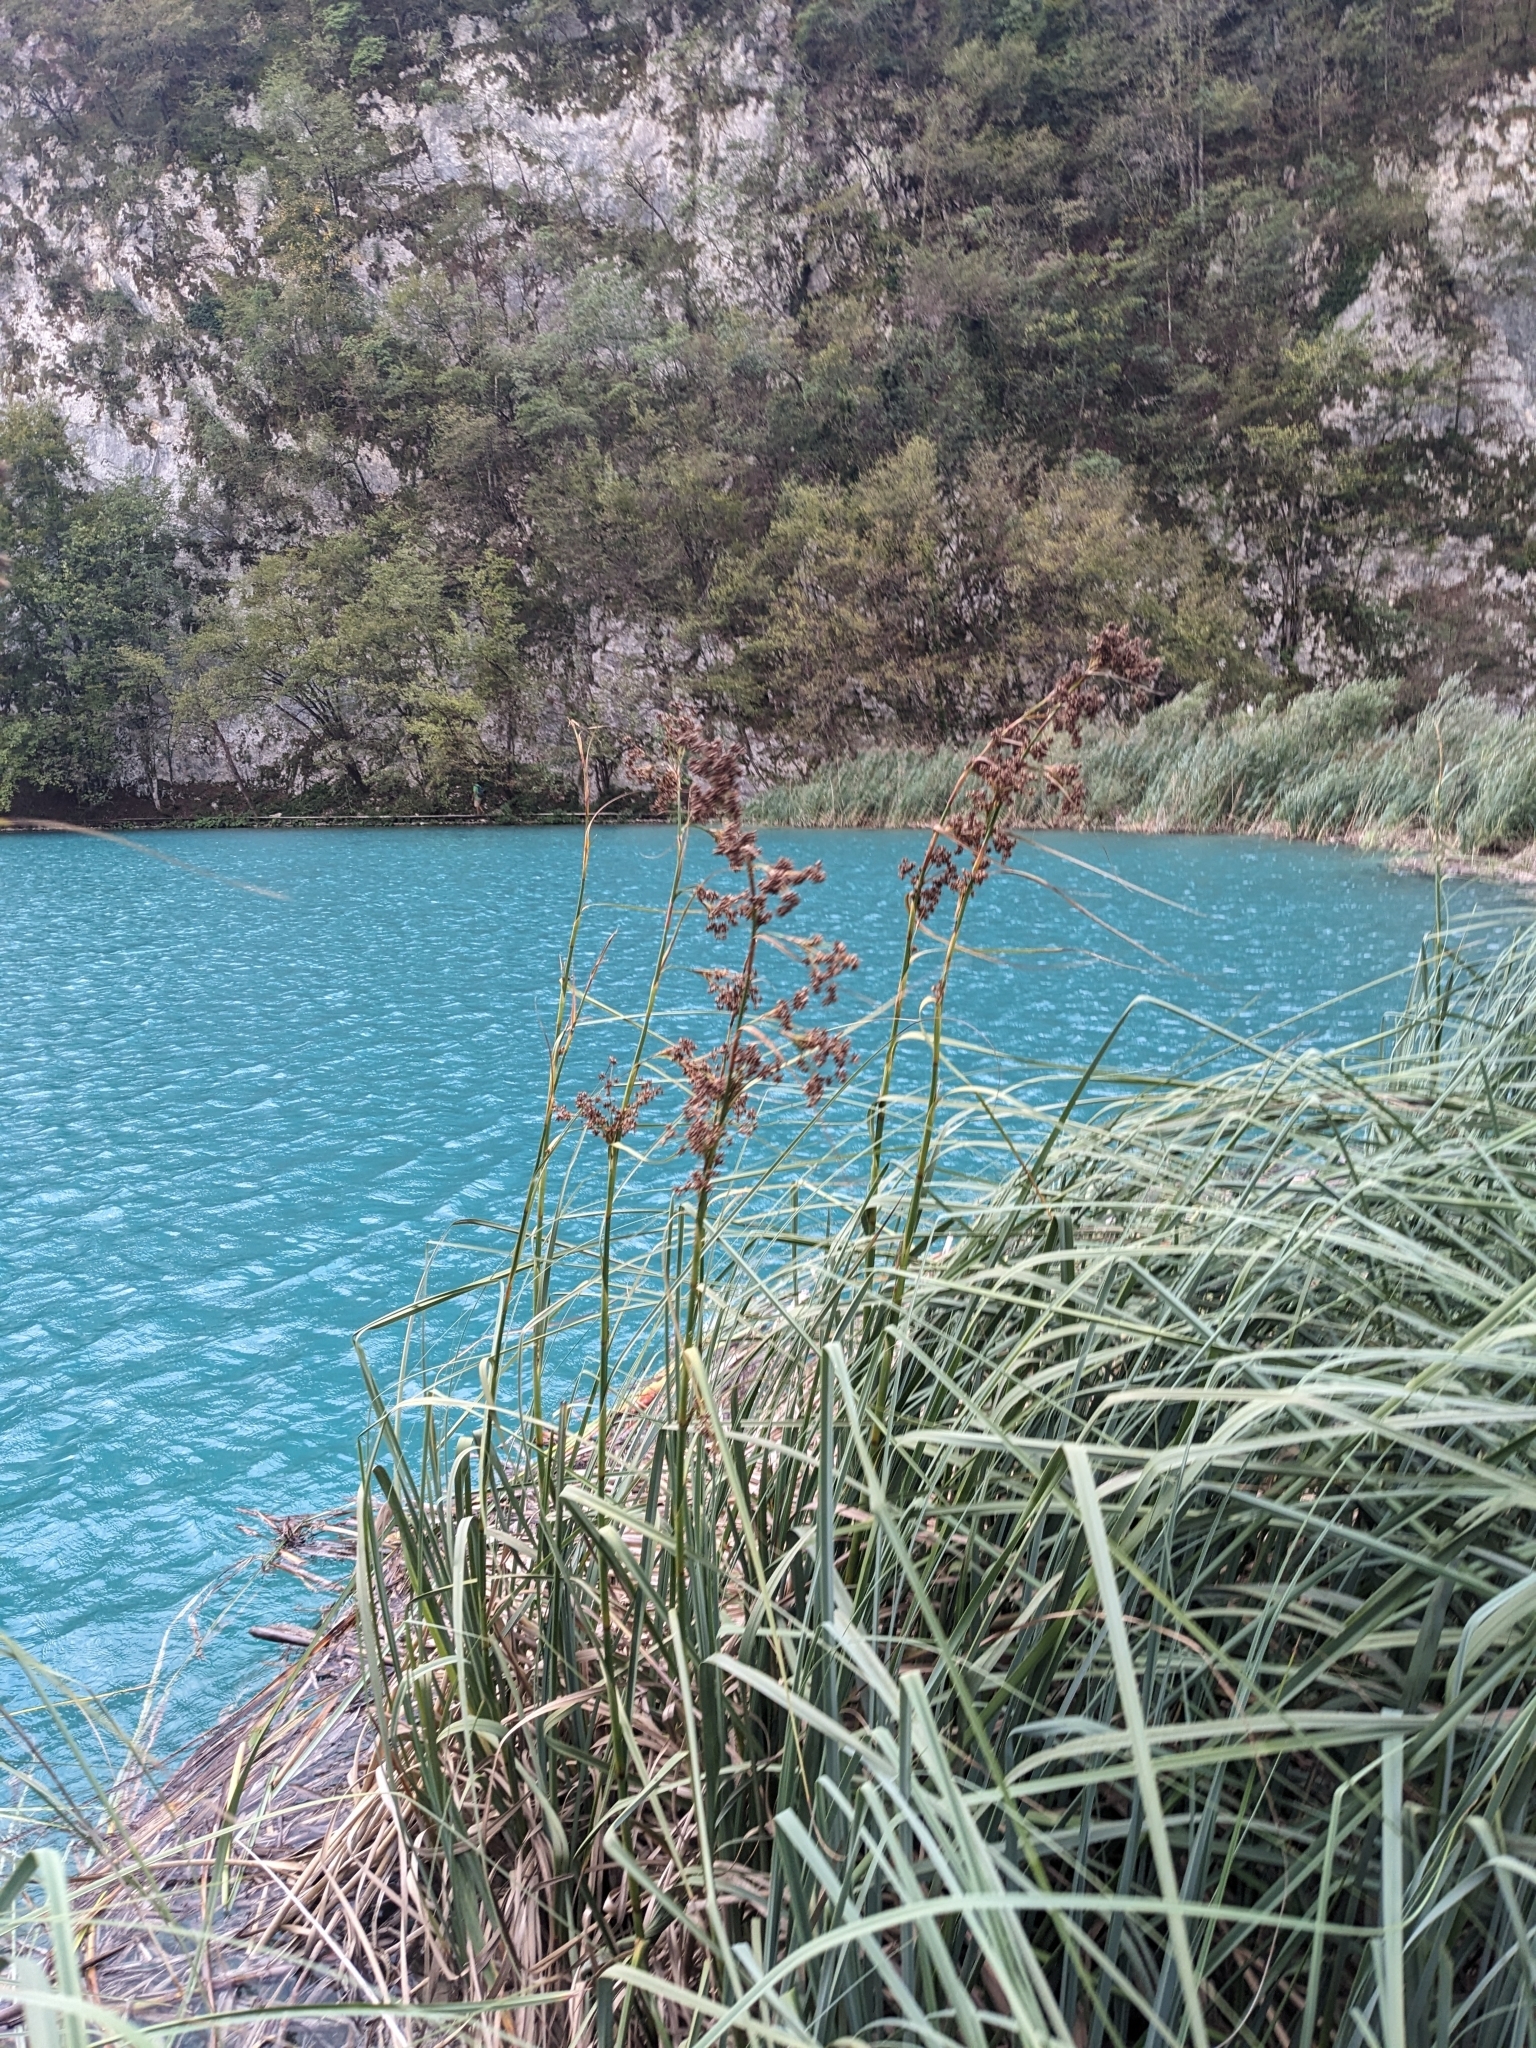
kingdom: Plantae
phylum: Tracheophyta
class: Liliopsida
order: Poales
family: Cyperaceae
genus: Cladium
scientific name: Cladium mariscus
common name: Great fen-sedge
